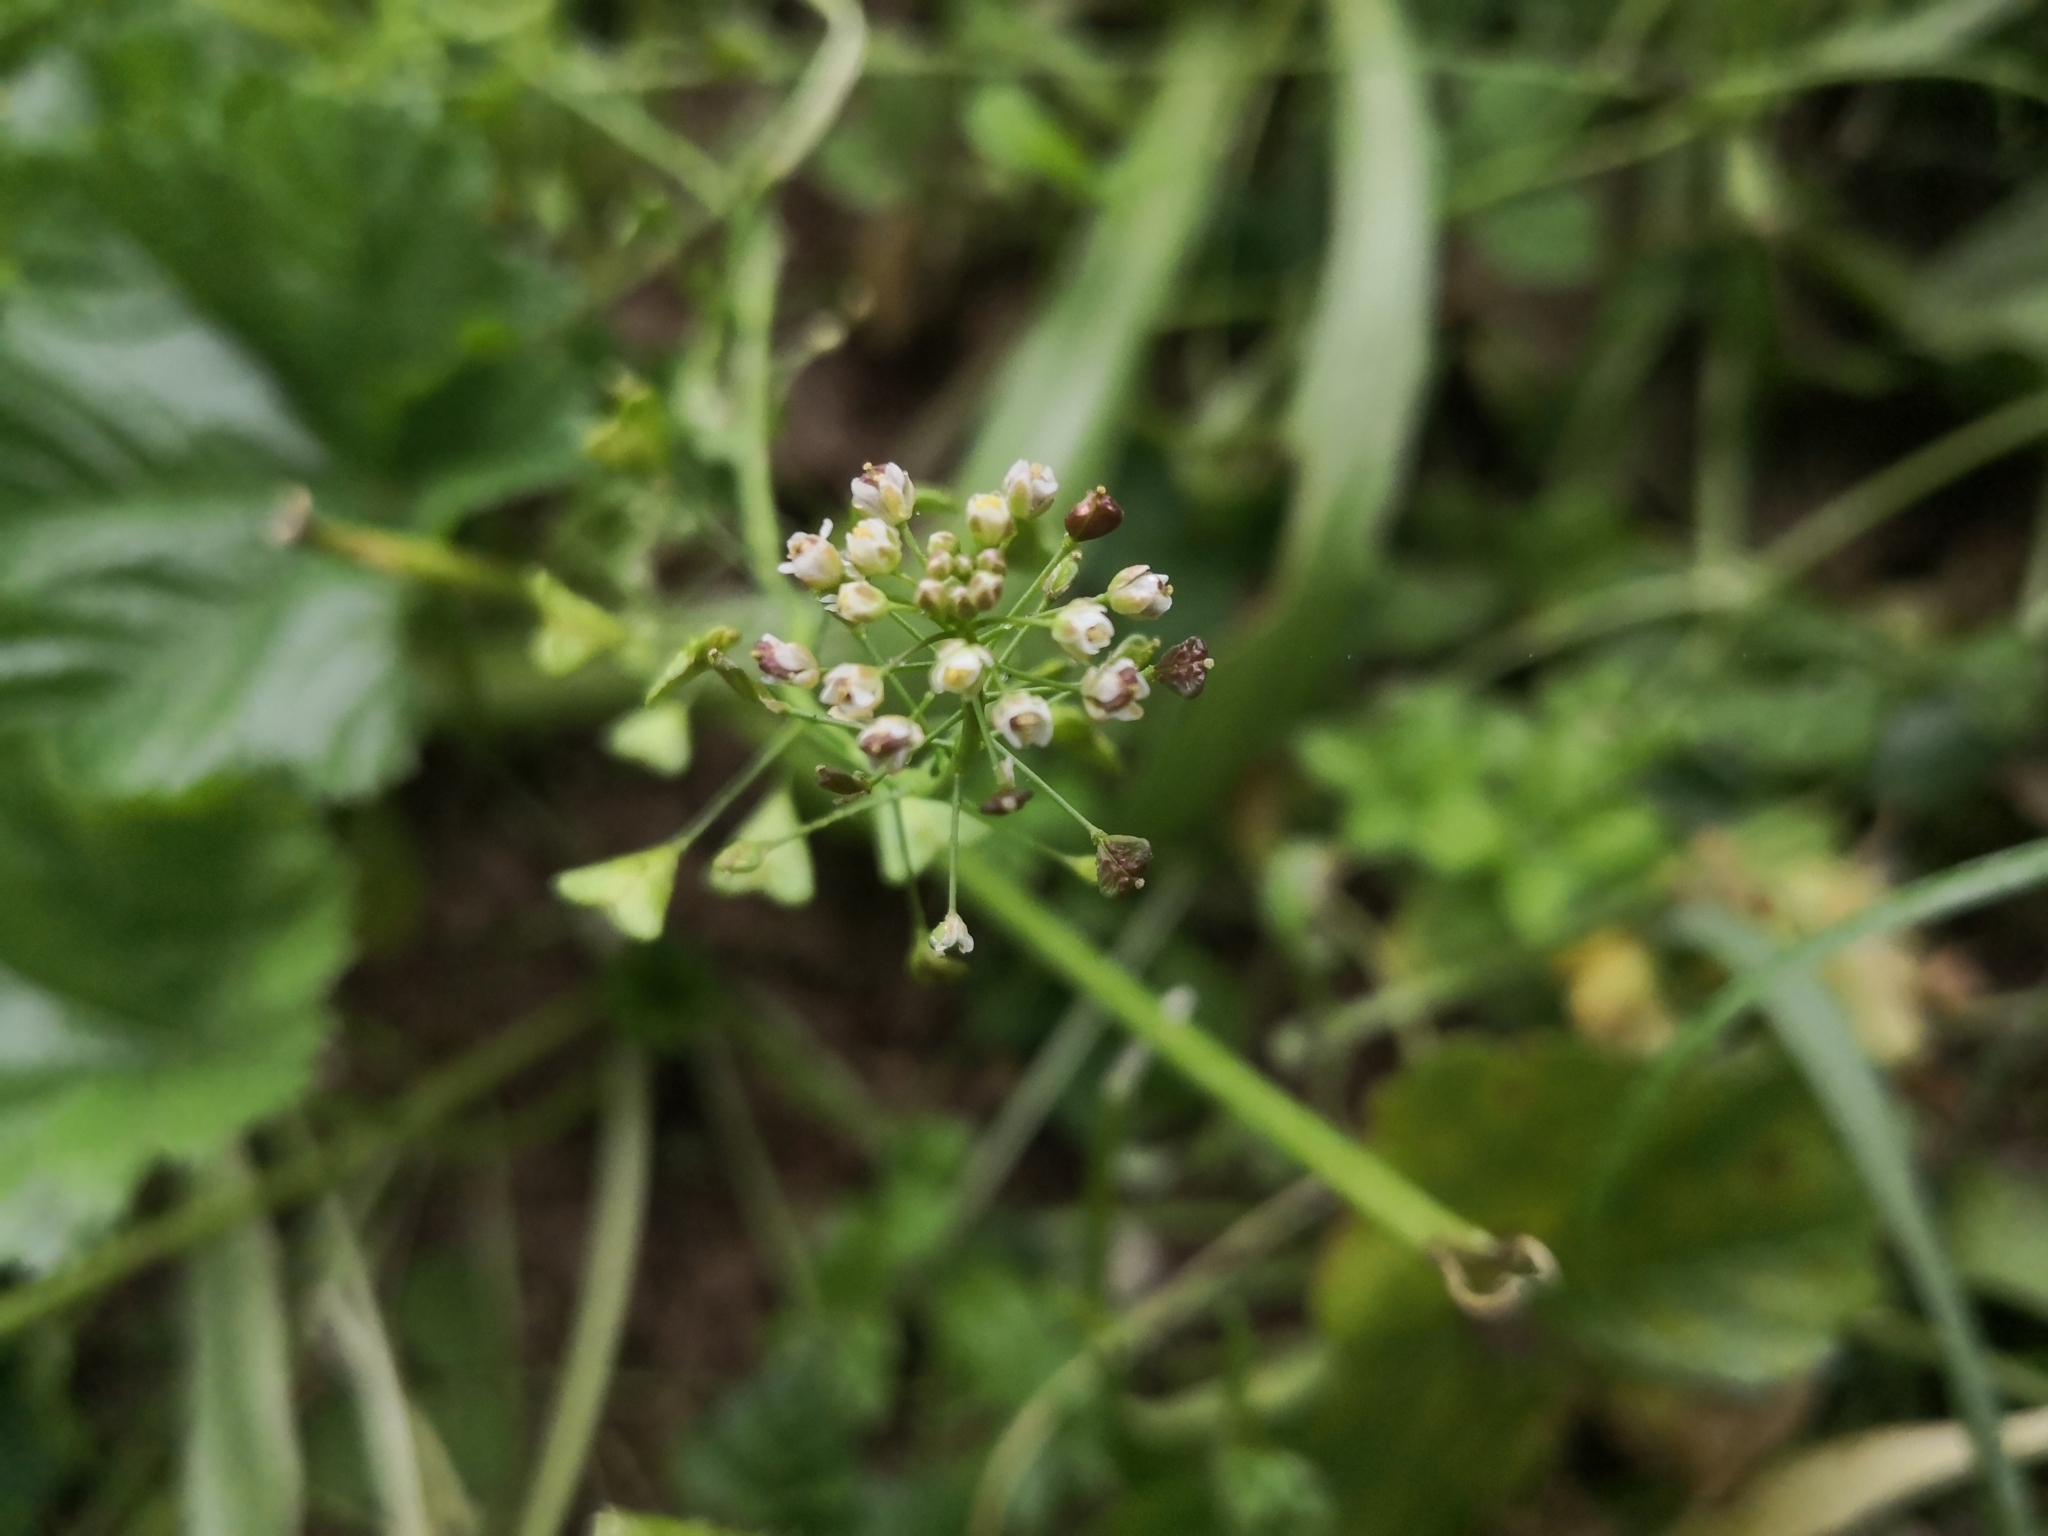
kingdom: Plantae
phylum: Tracheophyta
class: Magnoliopsida
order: Brassicales
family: Brassicaceae
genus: Capsella
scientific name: Capsella bursa-pastoris
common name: Shepherd's purse
